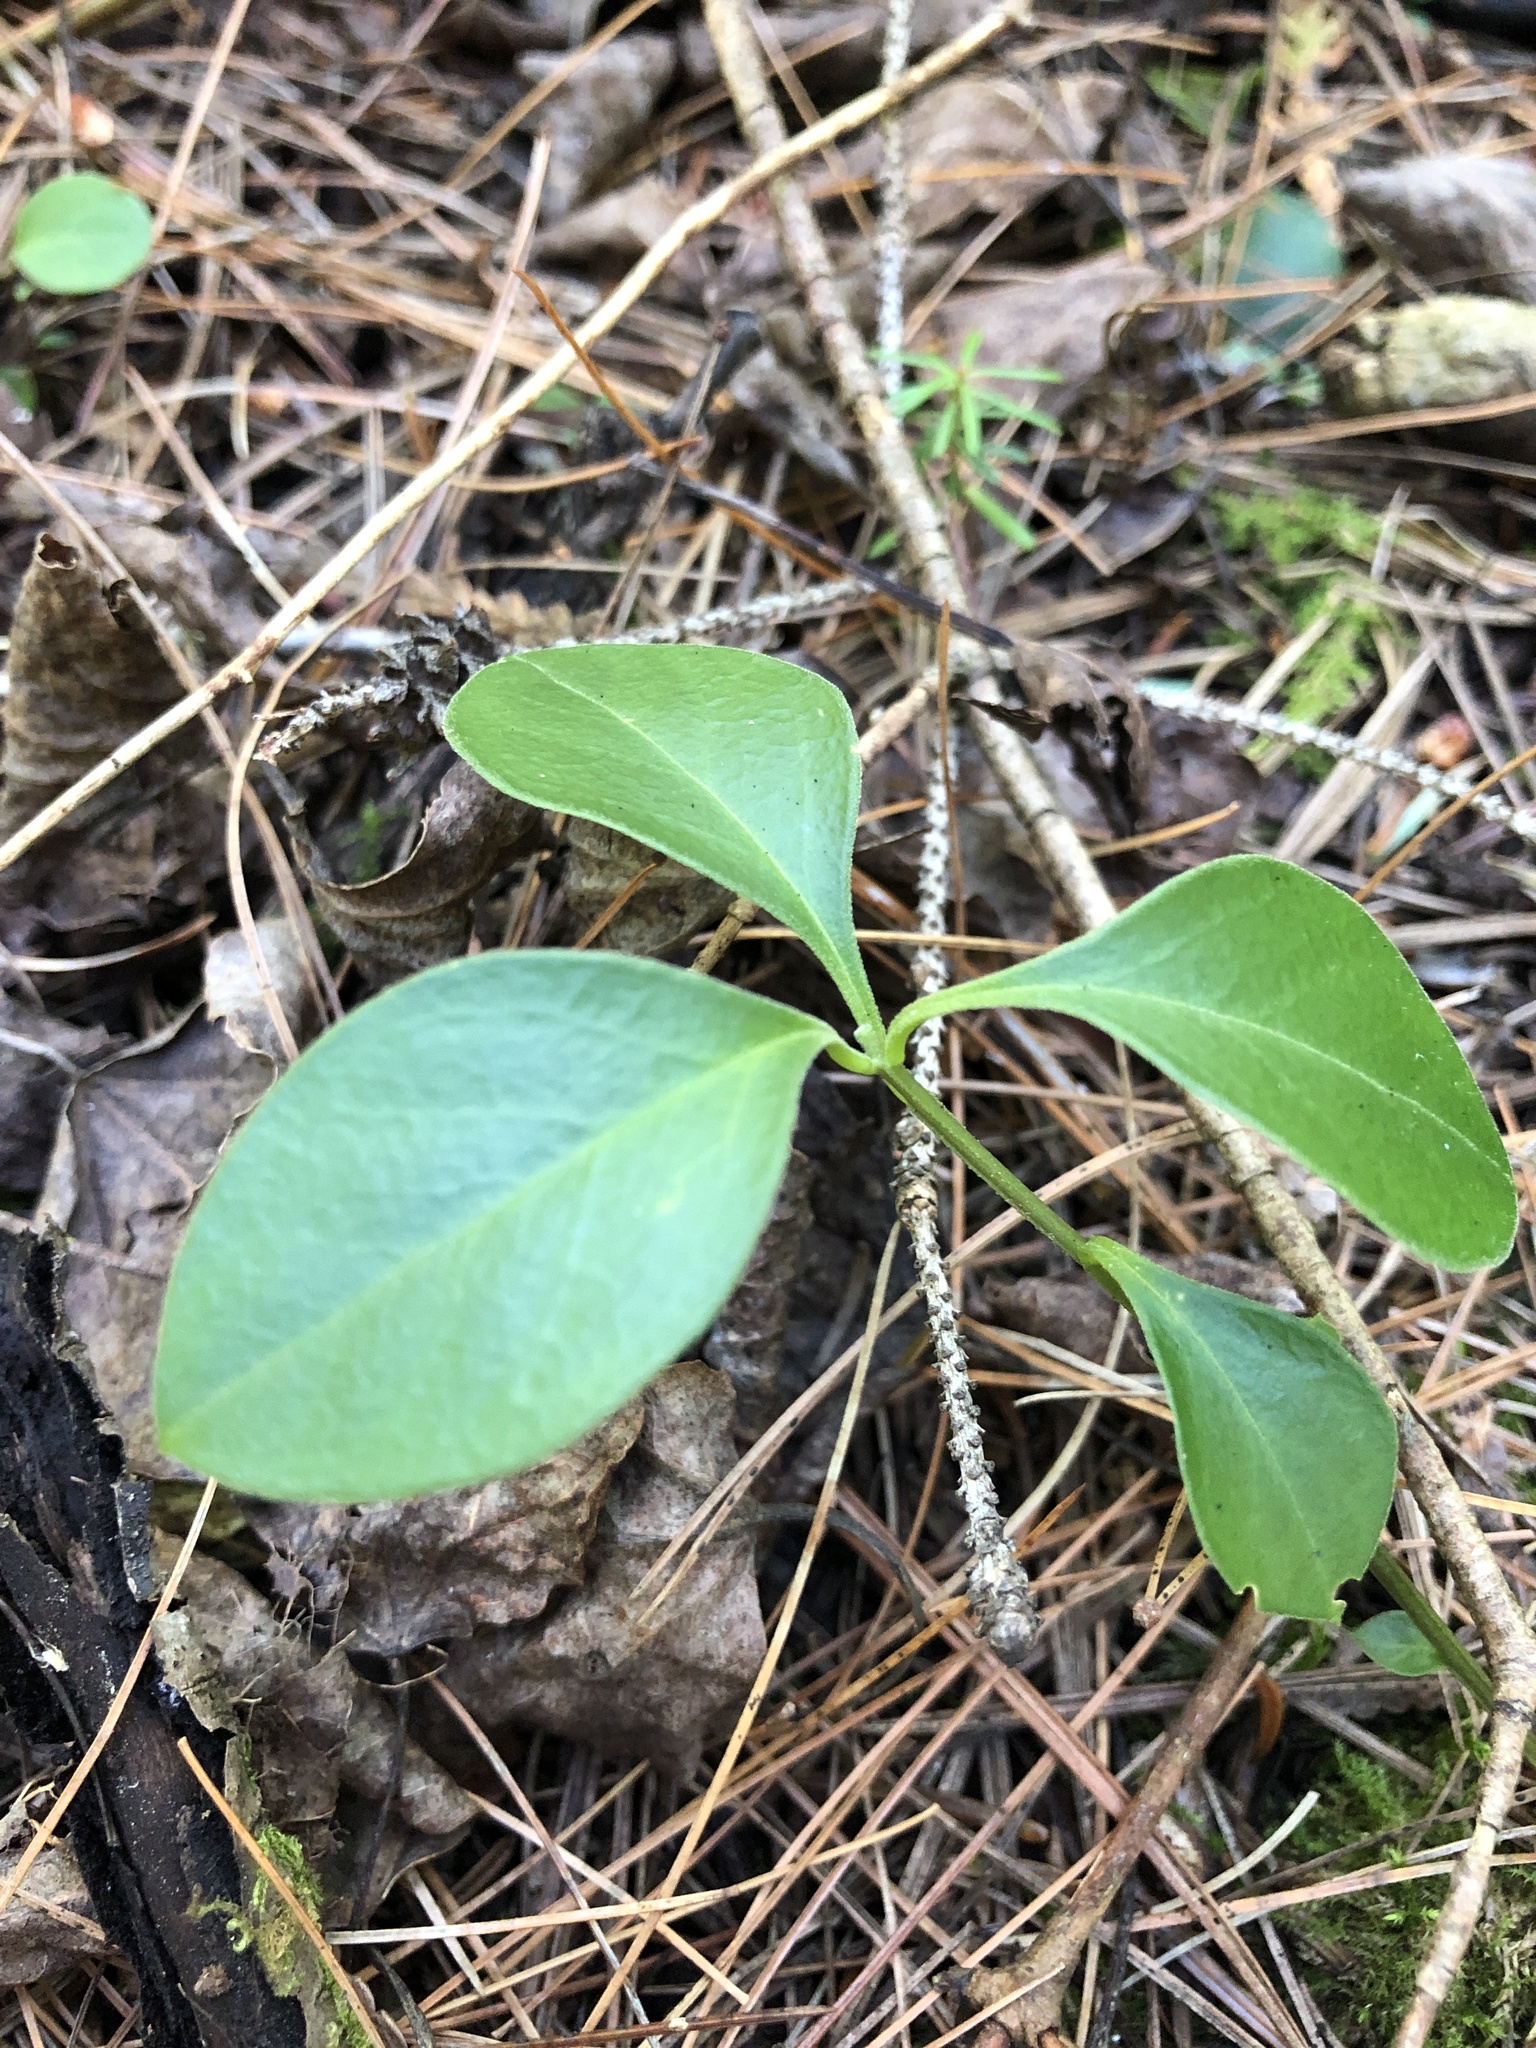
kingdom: Plantae
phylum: Tracheophyta
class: Magnoliopsida
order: Fabales
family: Polygalaceae
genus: Polygaloides
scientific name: Polygaloides paucifolia
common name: Bird-on-the-wing
